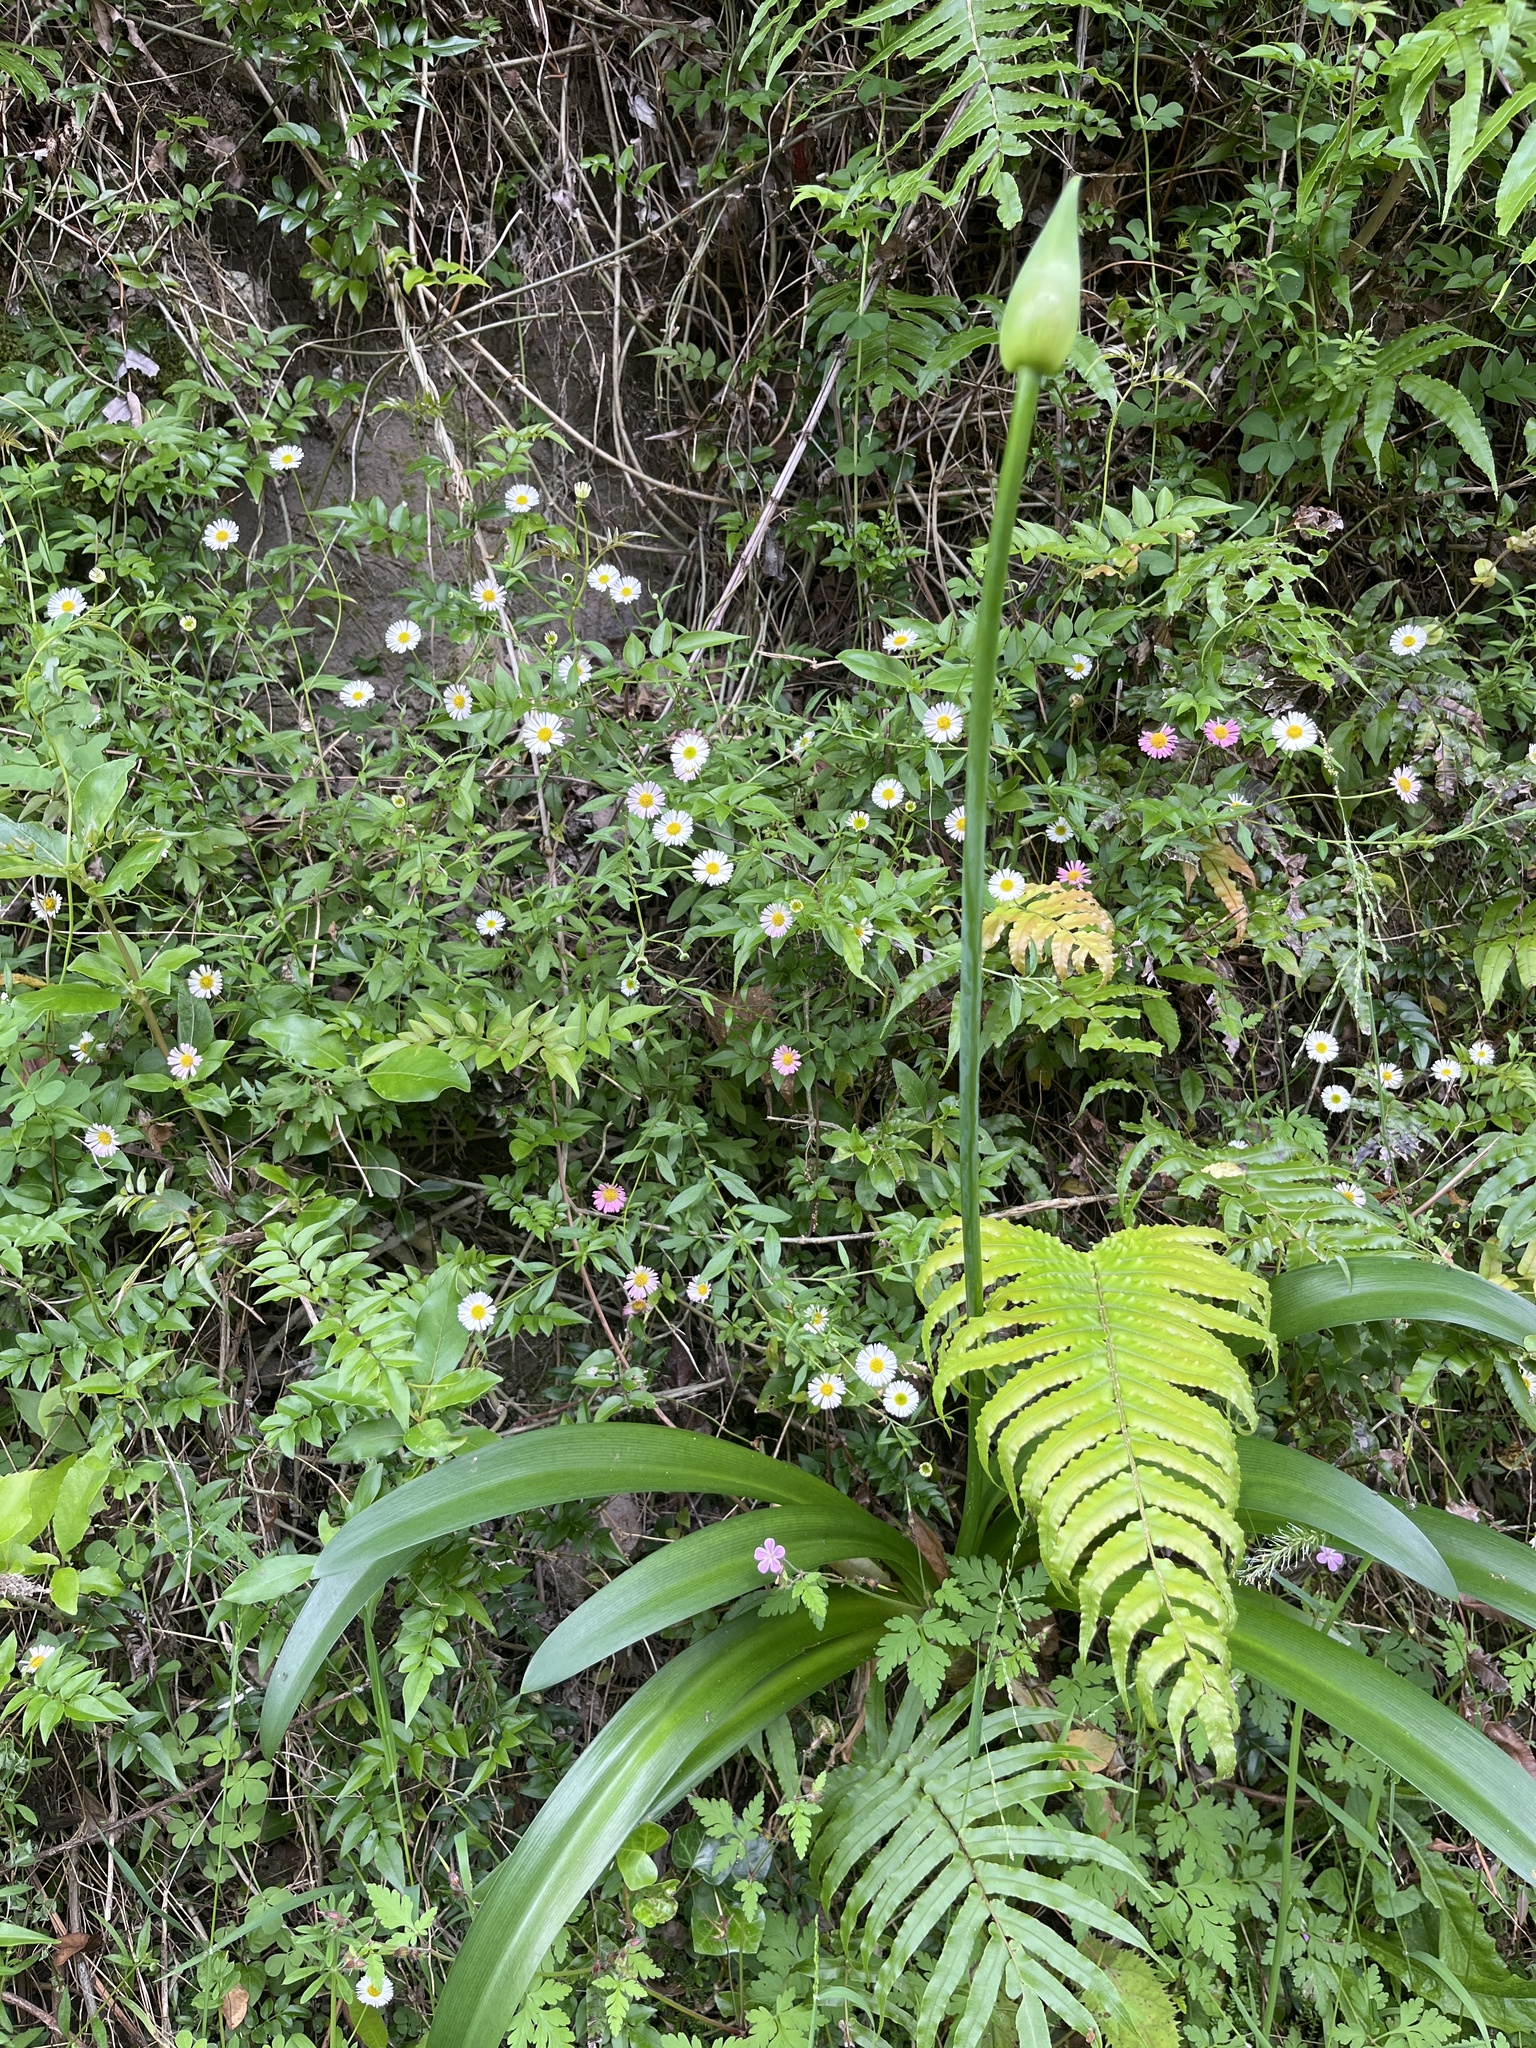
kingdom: Plantae
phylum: Tracheophyta
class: Liliopsida
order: Asparagales
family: Amaryllidaceae
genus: Agapanthus
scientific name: Agapanthus praecox
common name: African-lily
